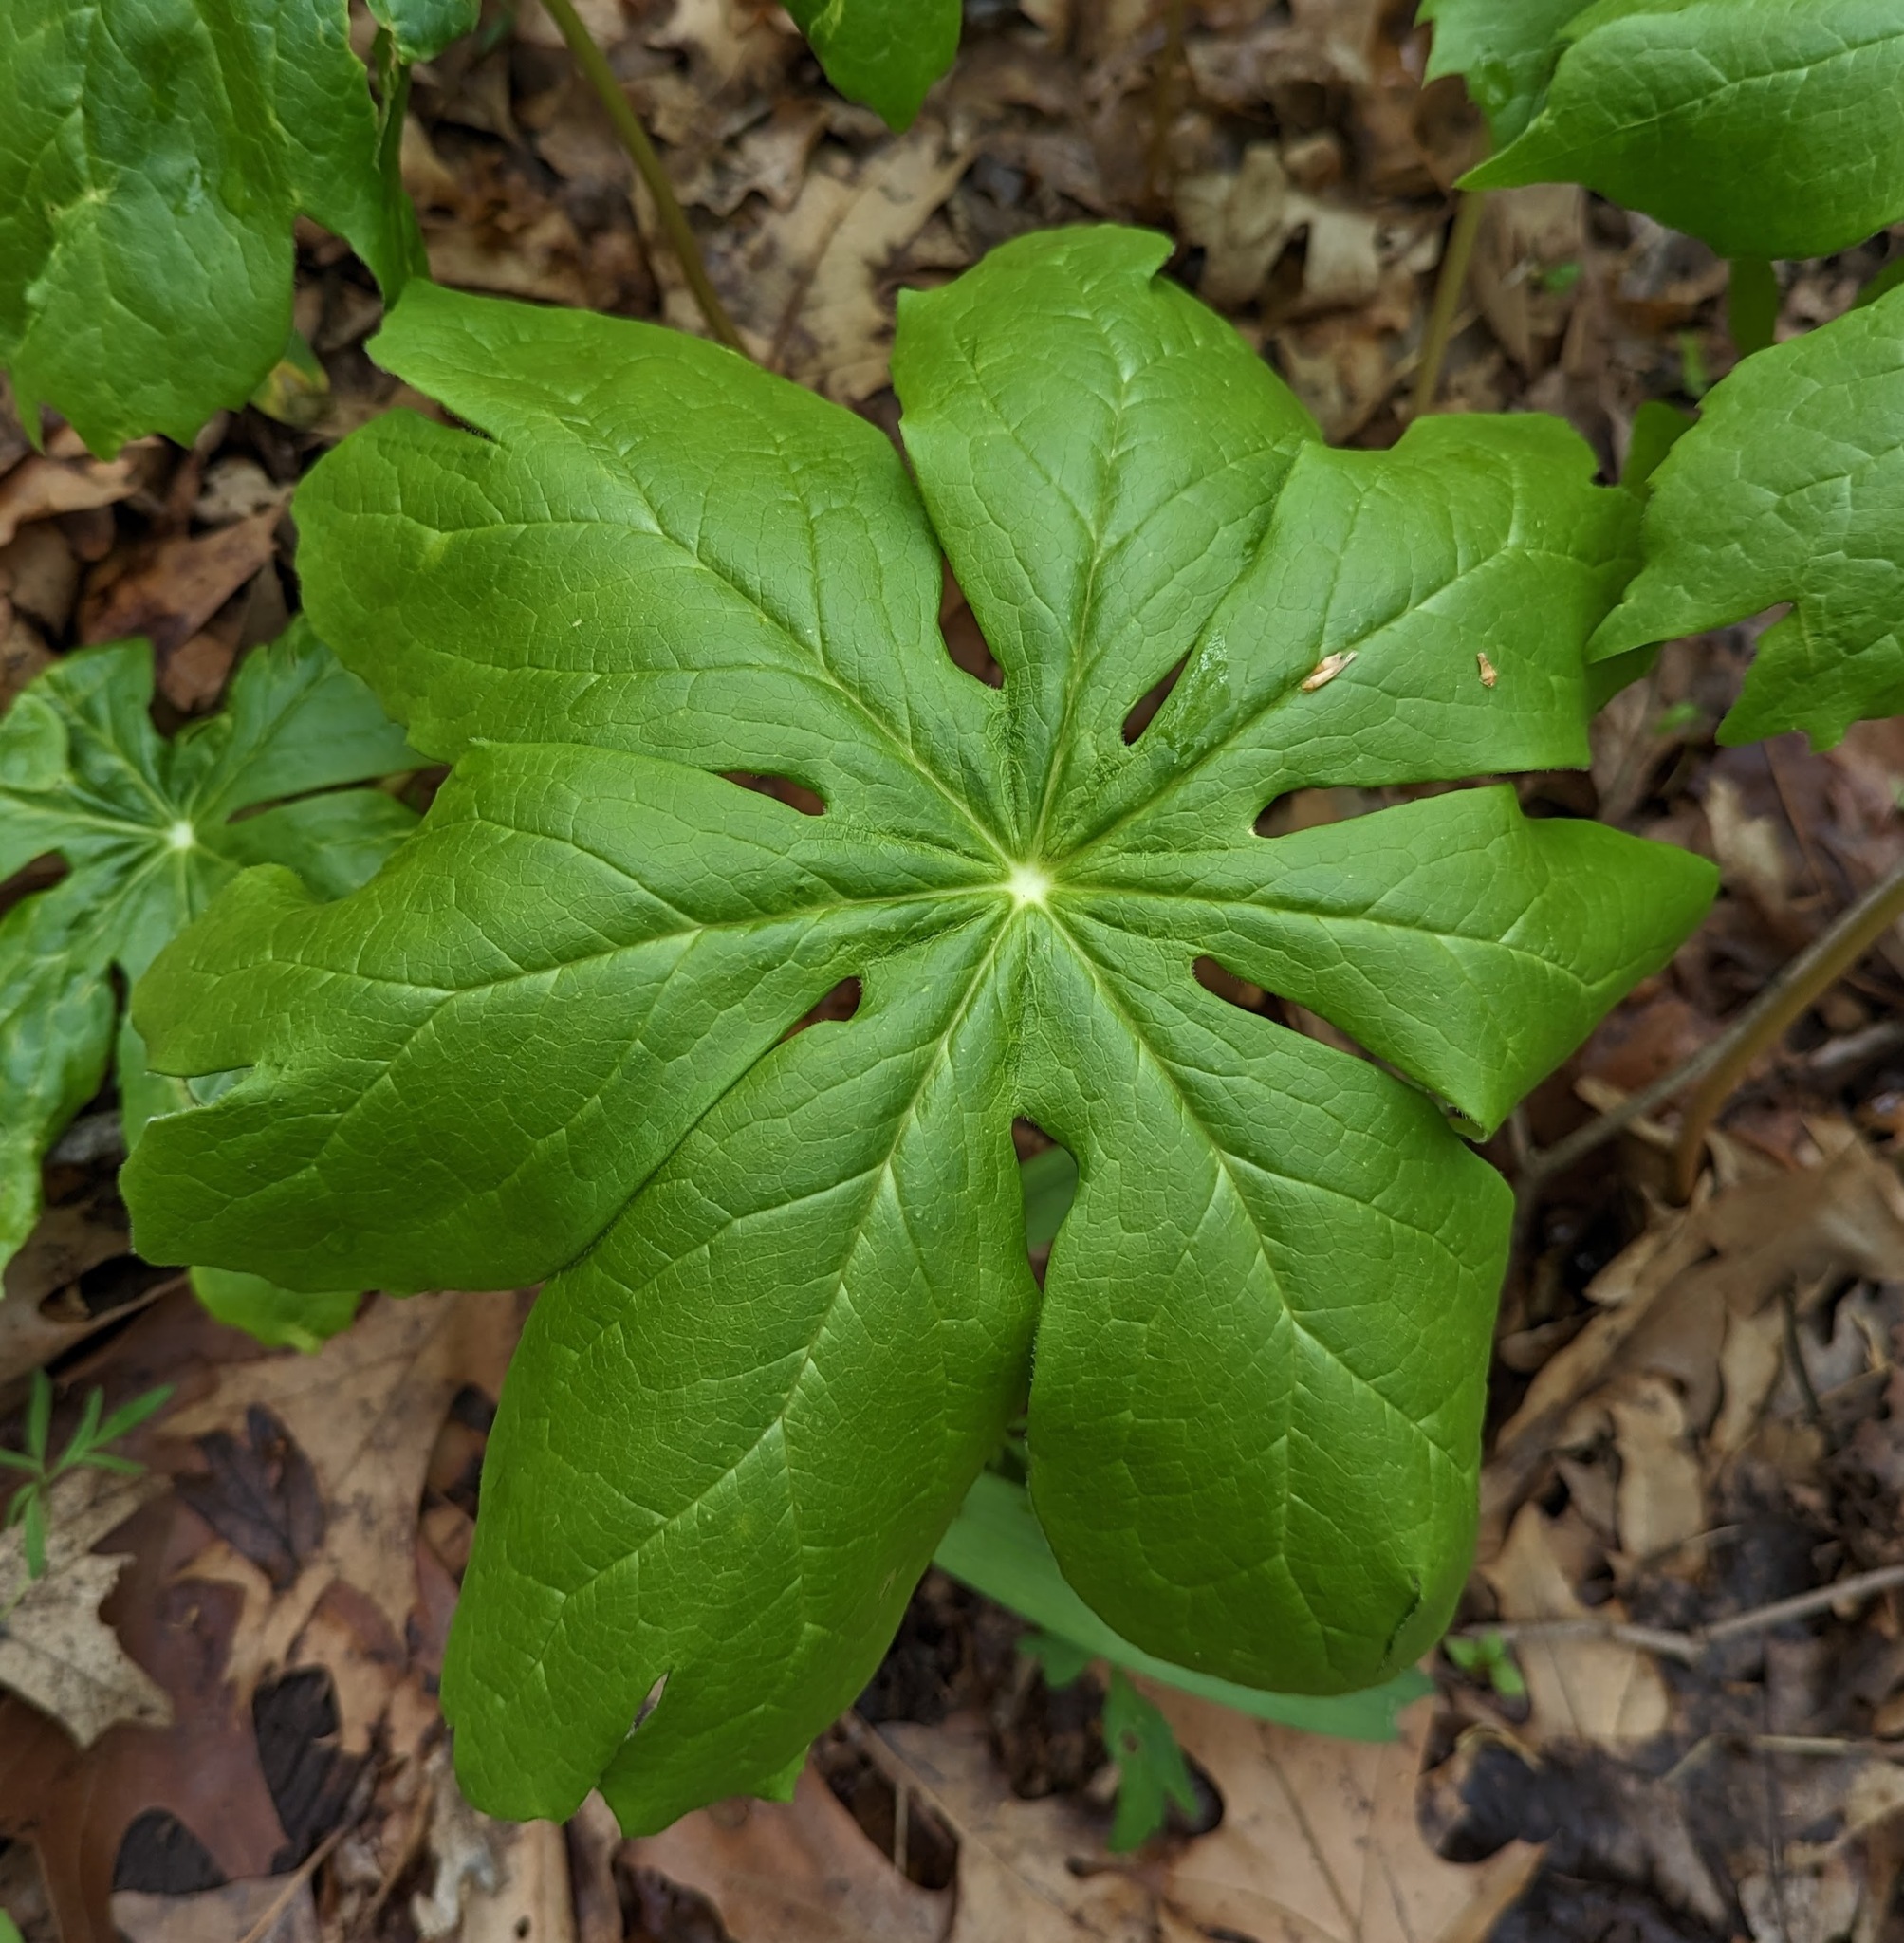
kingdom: Plantae
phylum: Tracheophyta
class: Magnoliopsida
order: Ranunculales
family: Berberidaceae
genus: Podophyllum
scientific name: Podophyllum peltatum
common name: Wild mandrake
